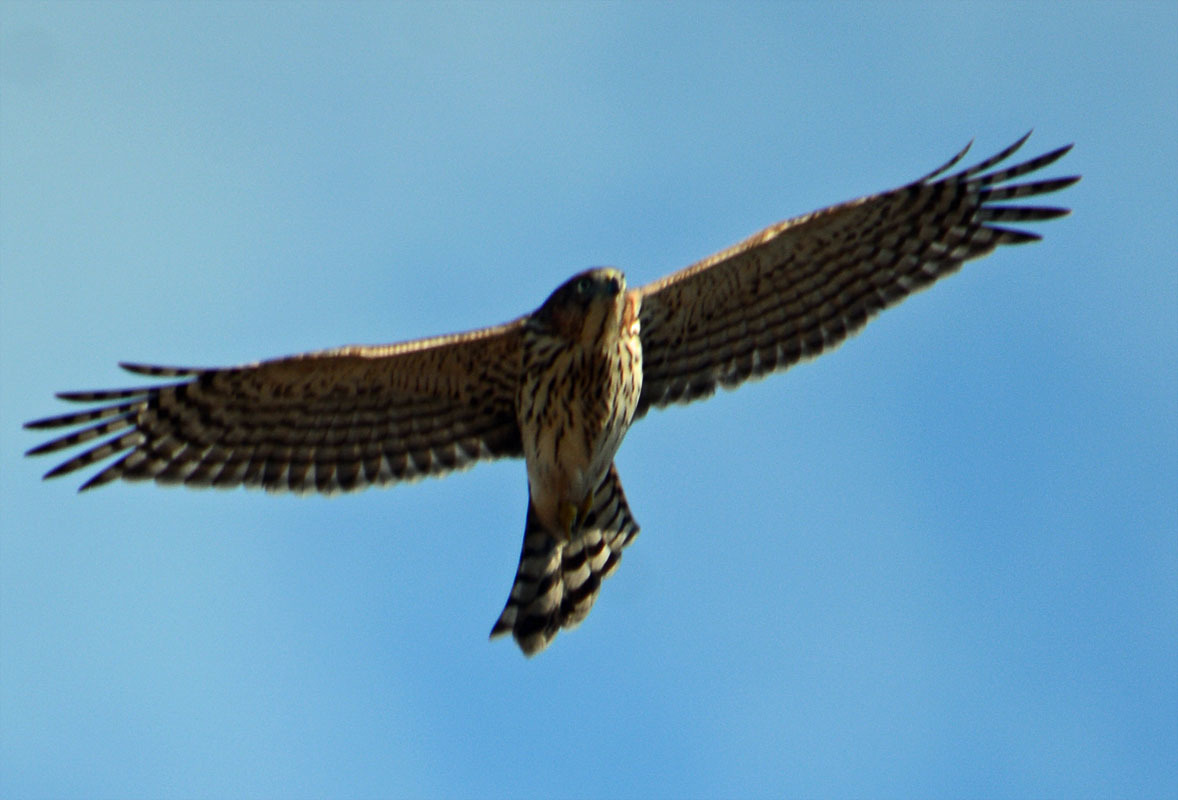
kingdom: Animalia
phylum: Chordata
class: Aves
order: Accipitriformes
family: Accipitridae
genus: Accipiter
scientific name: Accipiter cooperii
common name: Cooper's hawk
